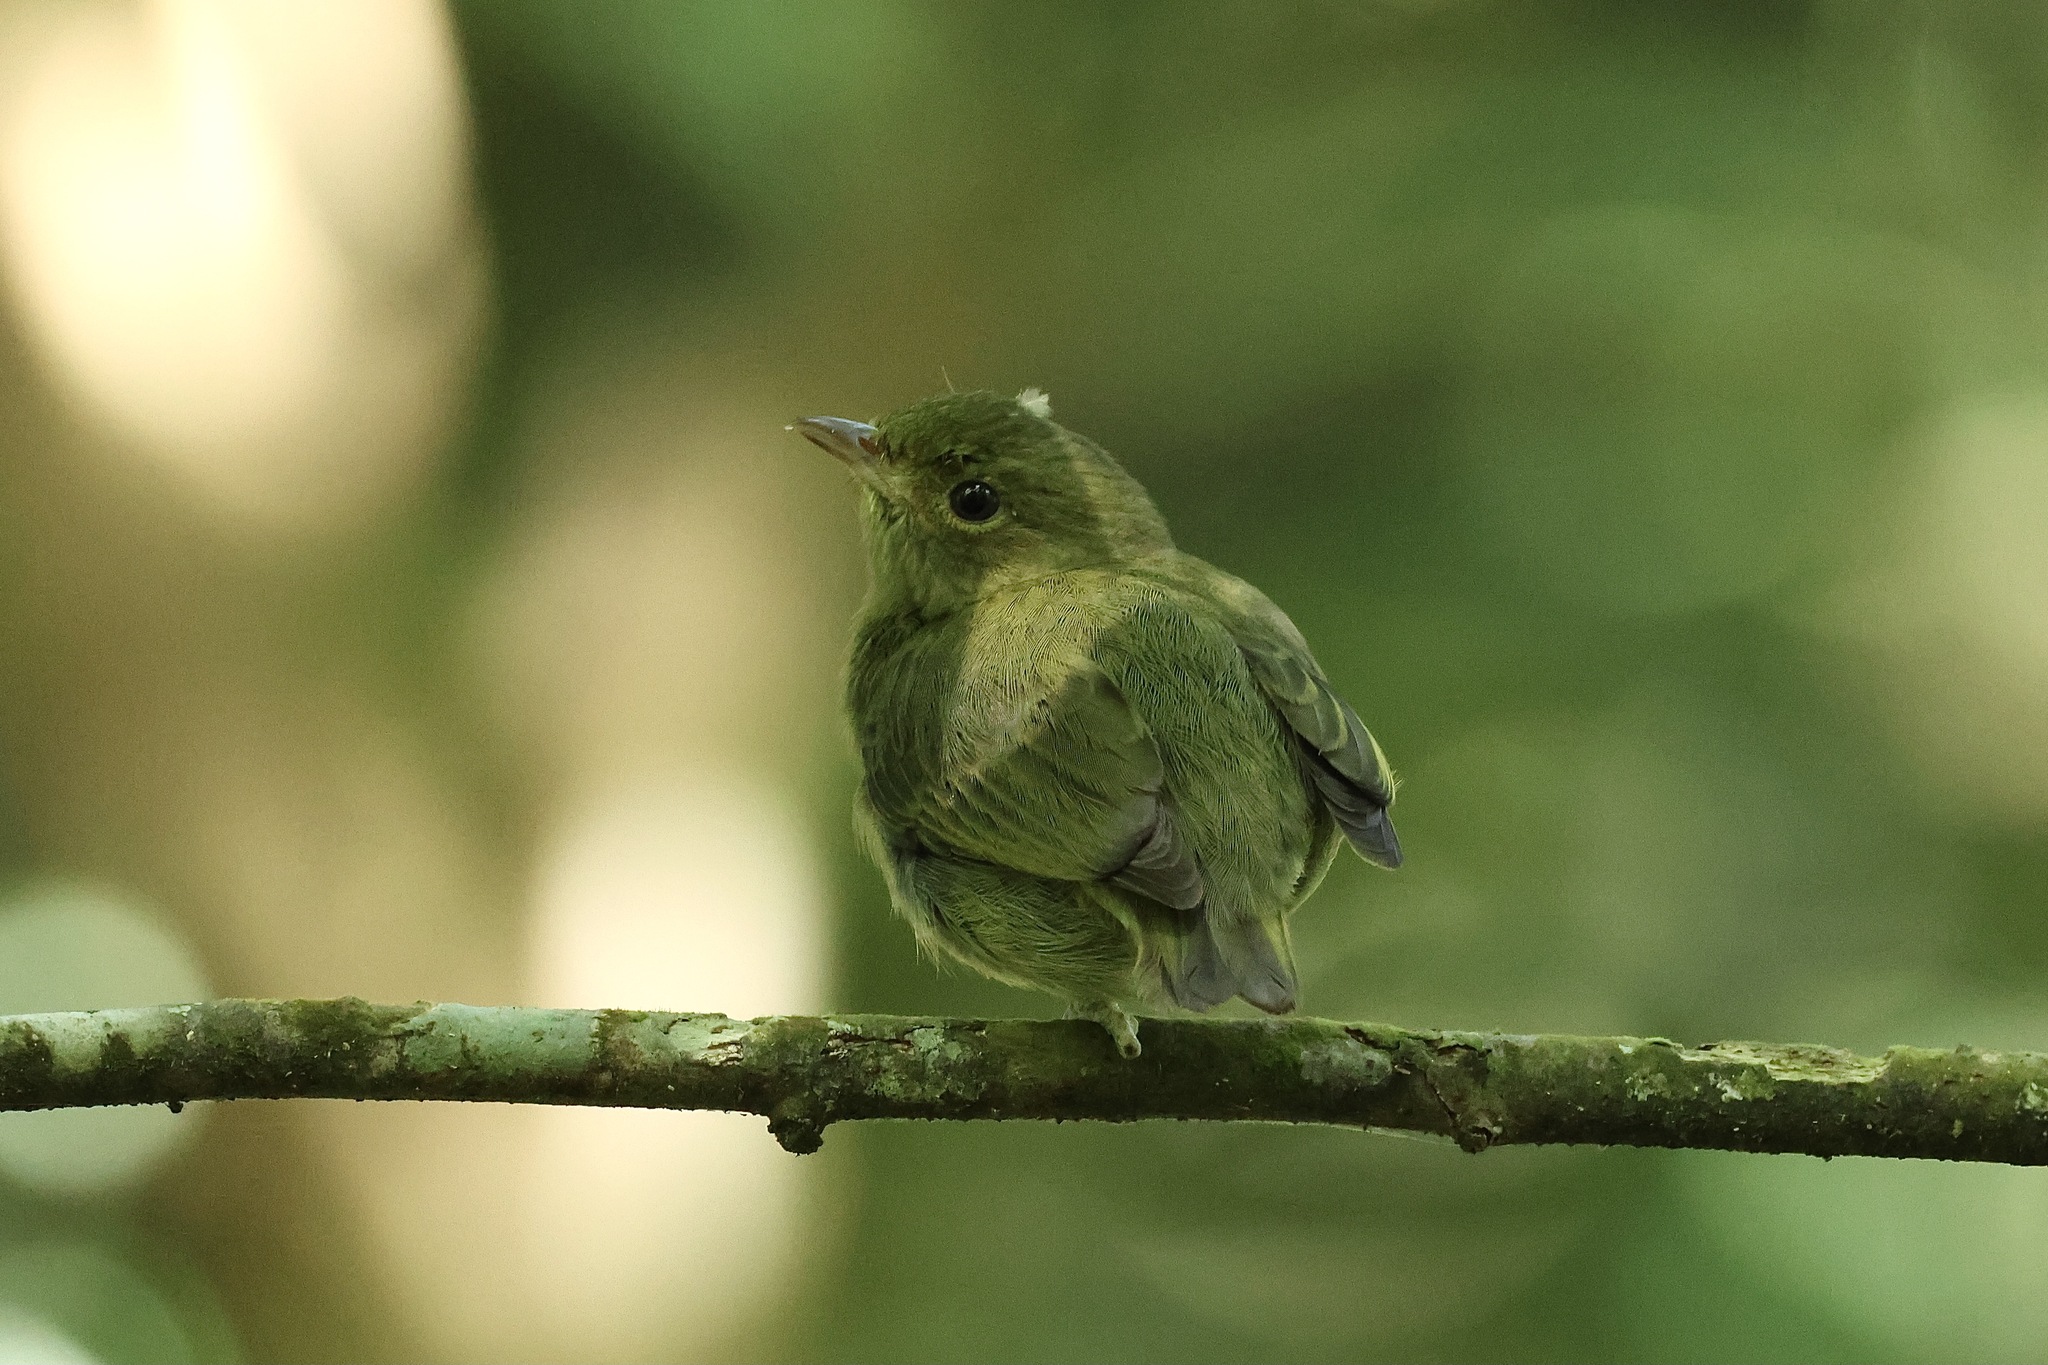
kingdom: Animalia
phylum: Chordata
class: Aves
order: Passeriformes
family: Pipridae
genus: Pipra
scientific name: Pipra mentalis
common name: Red-capped manakin
